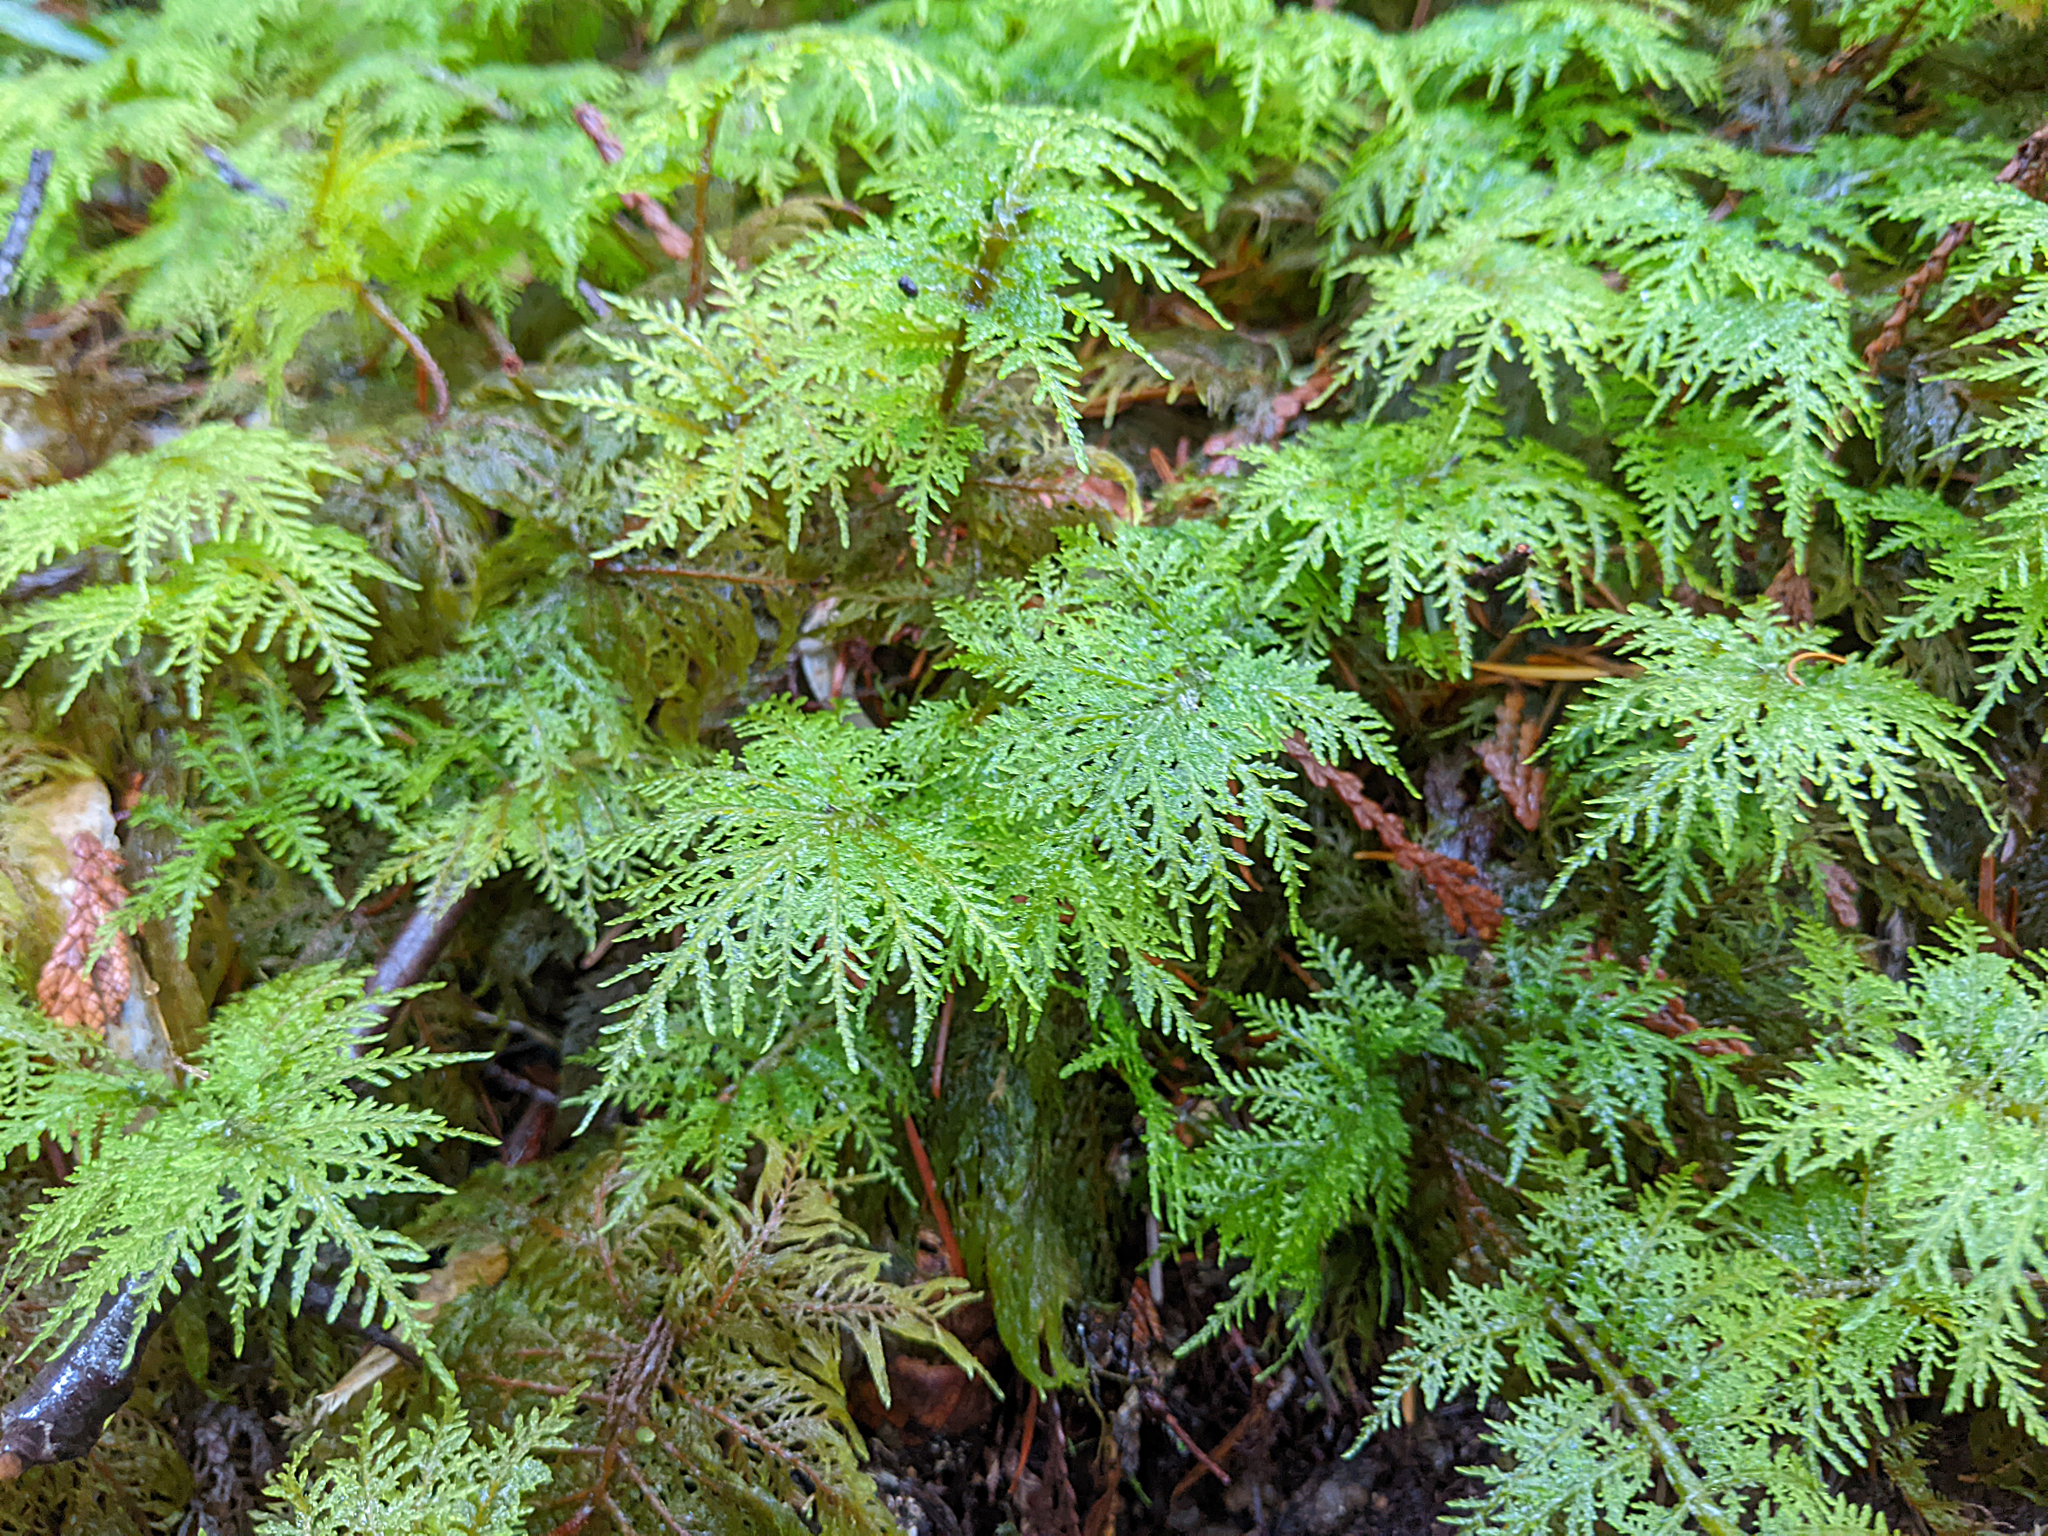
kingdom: Plantae
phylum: Bryophyta
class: Bryopsida
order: Hypnales
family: Hylocomiaceae
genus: Hylocomium
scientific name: Hylocomium splendens
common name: Stairstep moss
